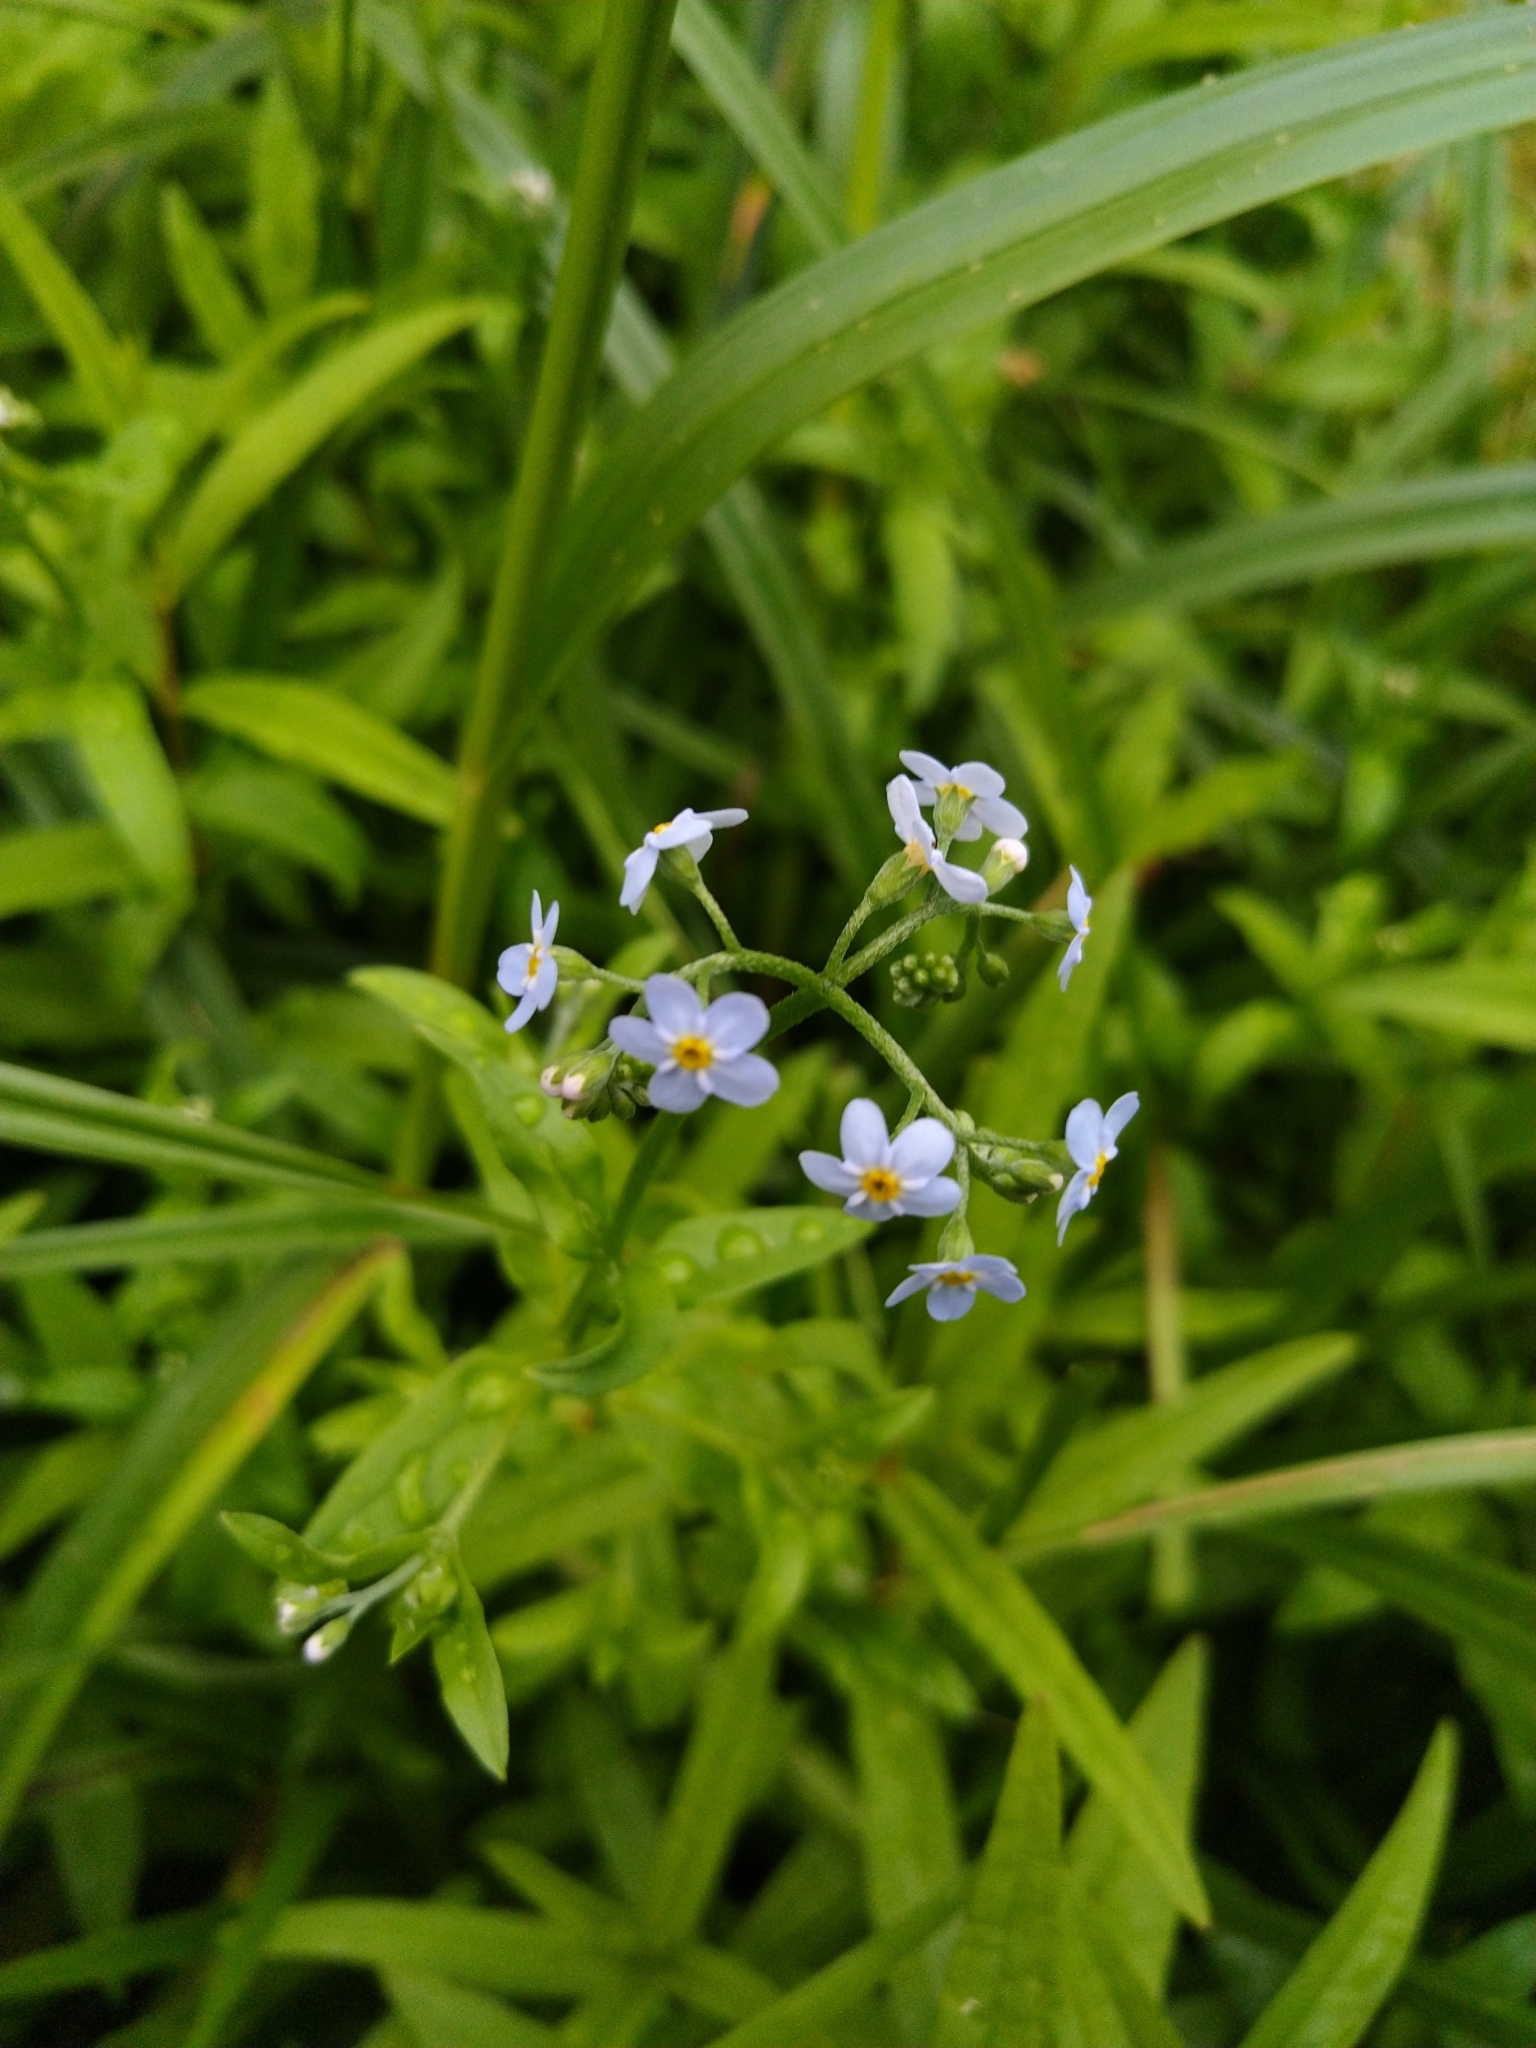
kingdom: Plantae
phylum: Tracheophyta
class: Magnoliopsida
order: Boraginales
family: Boraginaceae
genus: Myosotis
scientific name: Myosotis scorpioides
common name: Water forget-me-not
